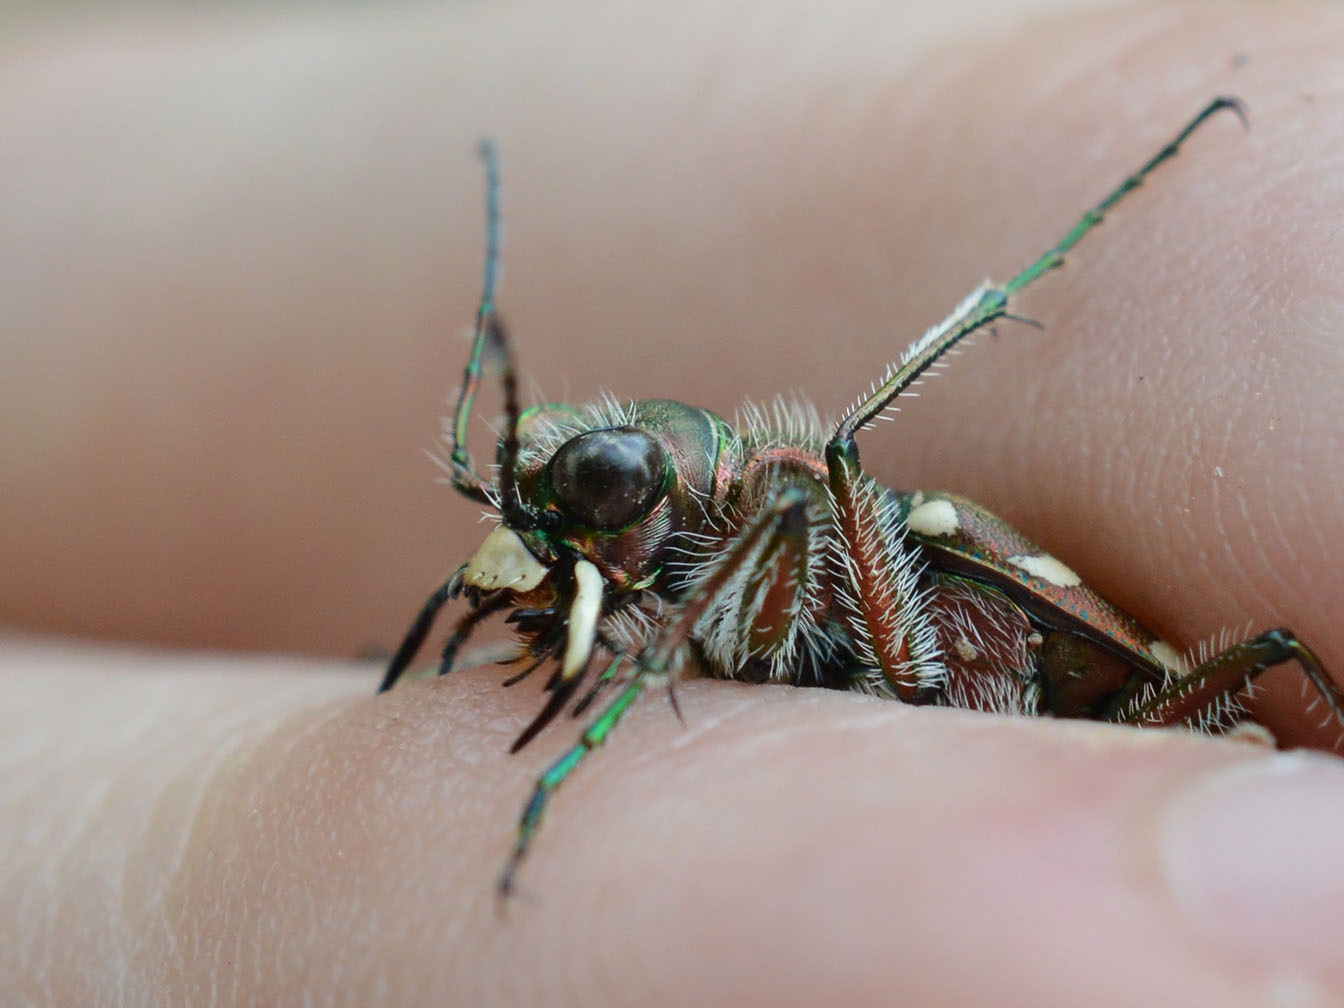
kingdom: Animalia
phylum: Arthropoda
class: Insecta
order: Coleoptera
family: Carabidae
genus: Cicindela
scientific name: Cicindela sylvicola
